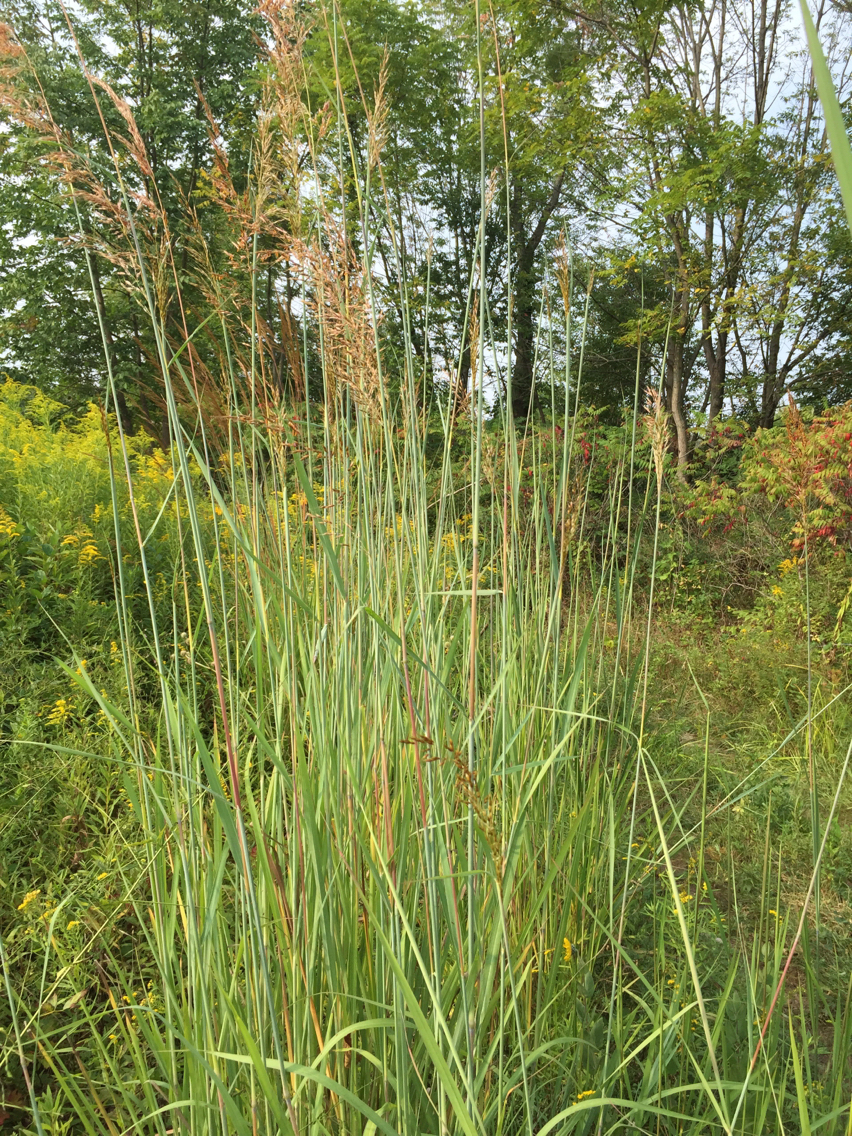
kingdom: Plantae
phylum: Tracheophyta
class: Liliopsida
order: Poales
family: Poaceae
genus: Sorghastrum
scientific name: Sorghastrum nutans
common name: Indian grass
